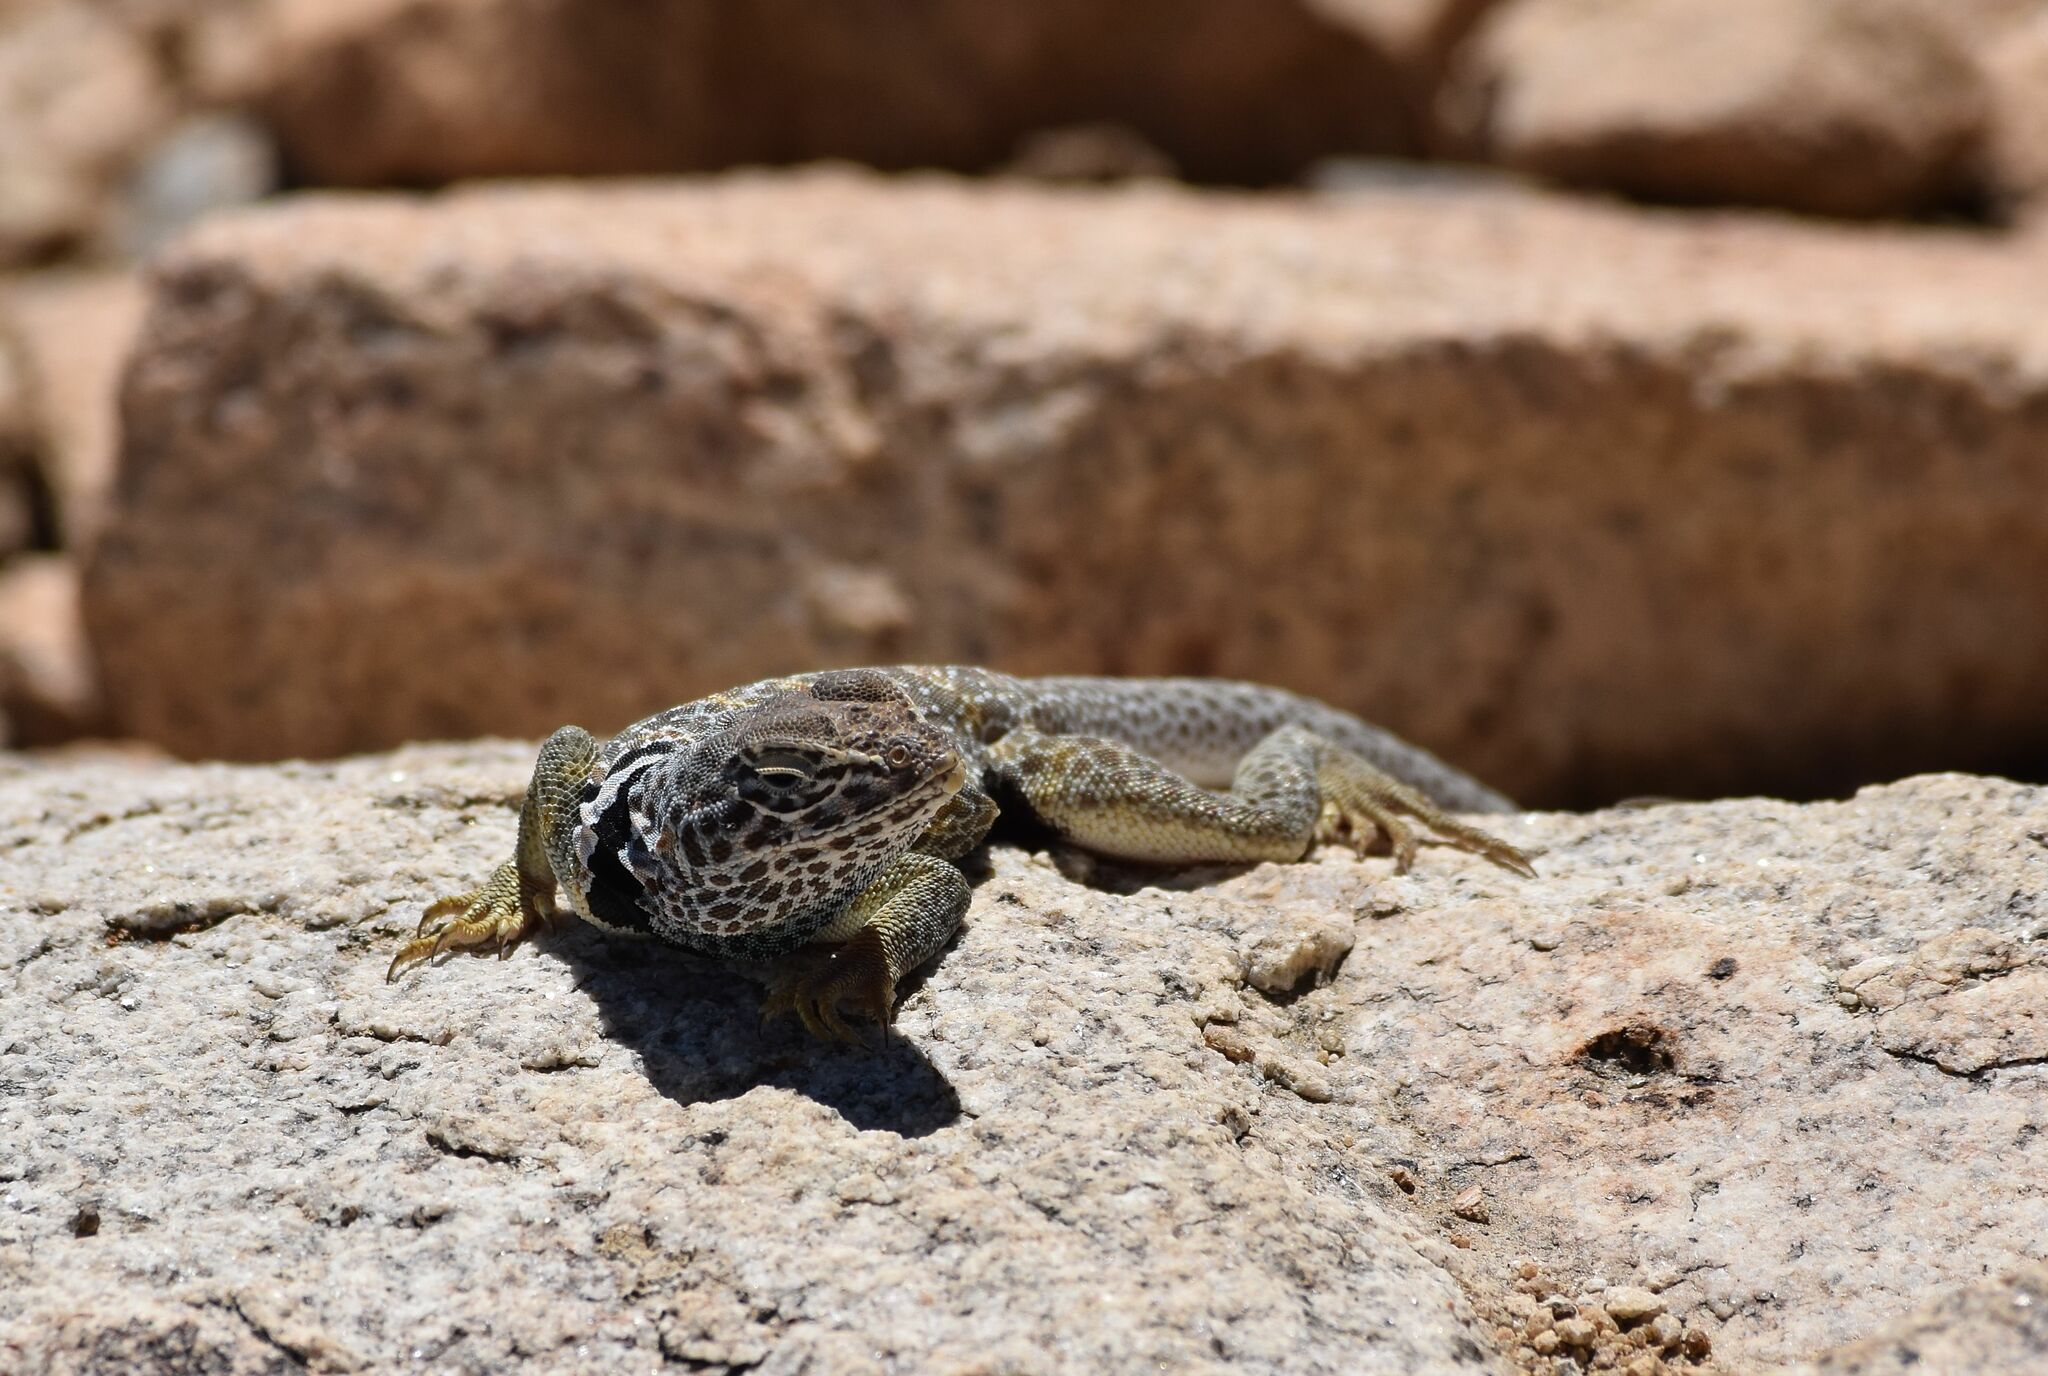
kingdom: Animalia
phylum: Chordata
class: Squamata
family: Crotaphytidae
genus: Crotaphytus
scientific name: Crotaphytus bicinctores
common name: Mojave black-collared lizard
